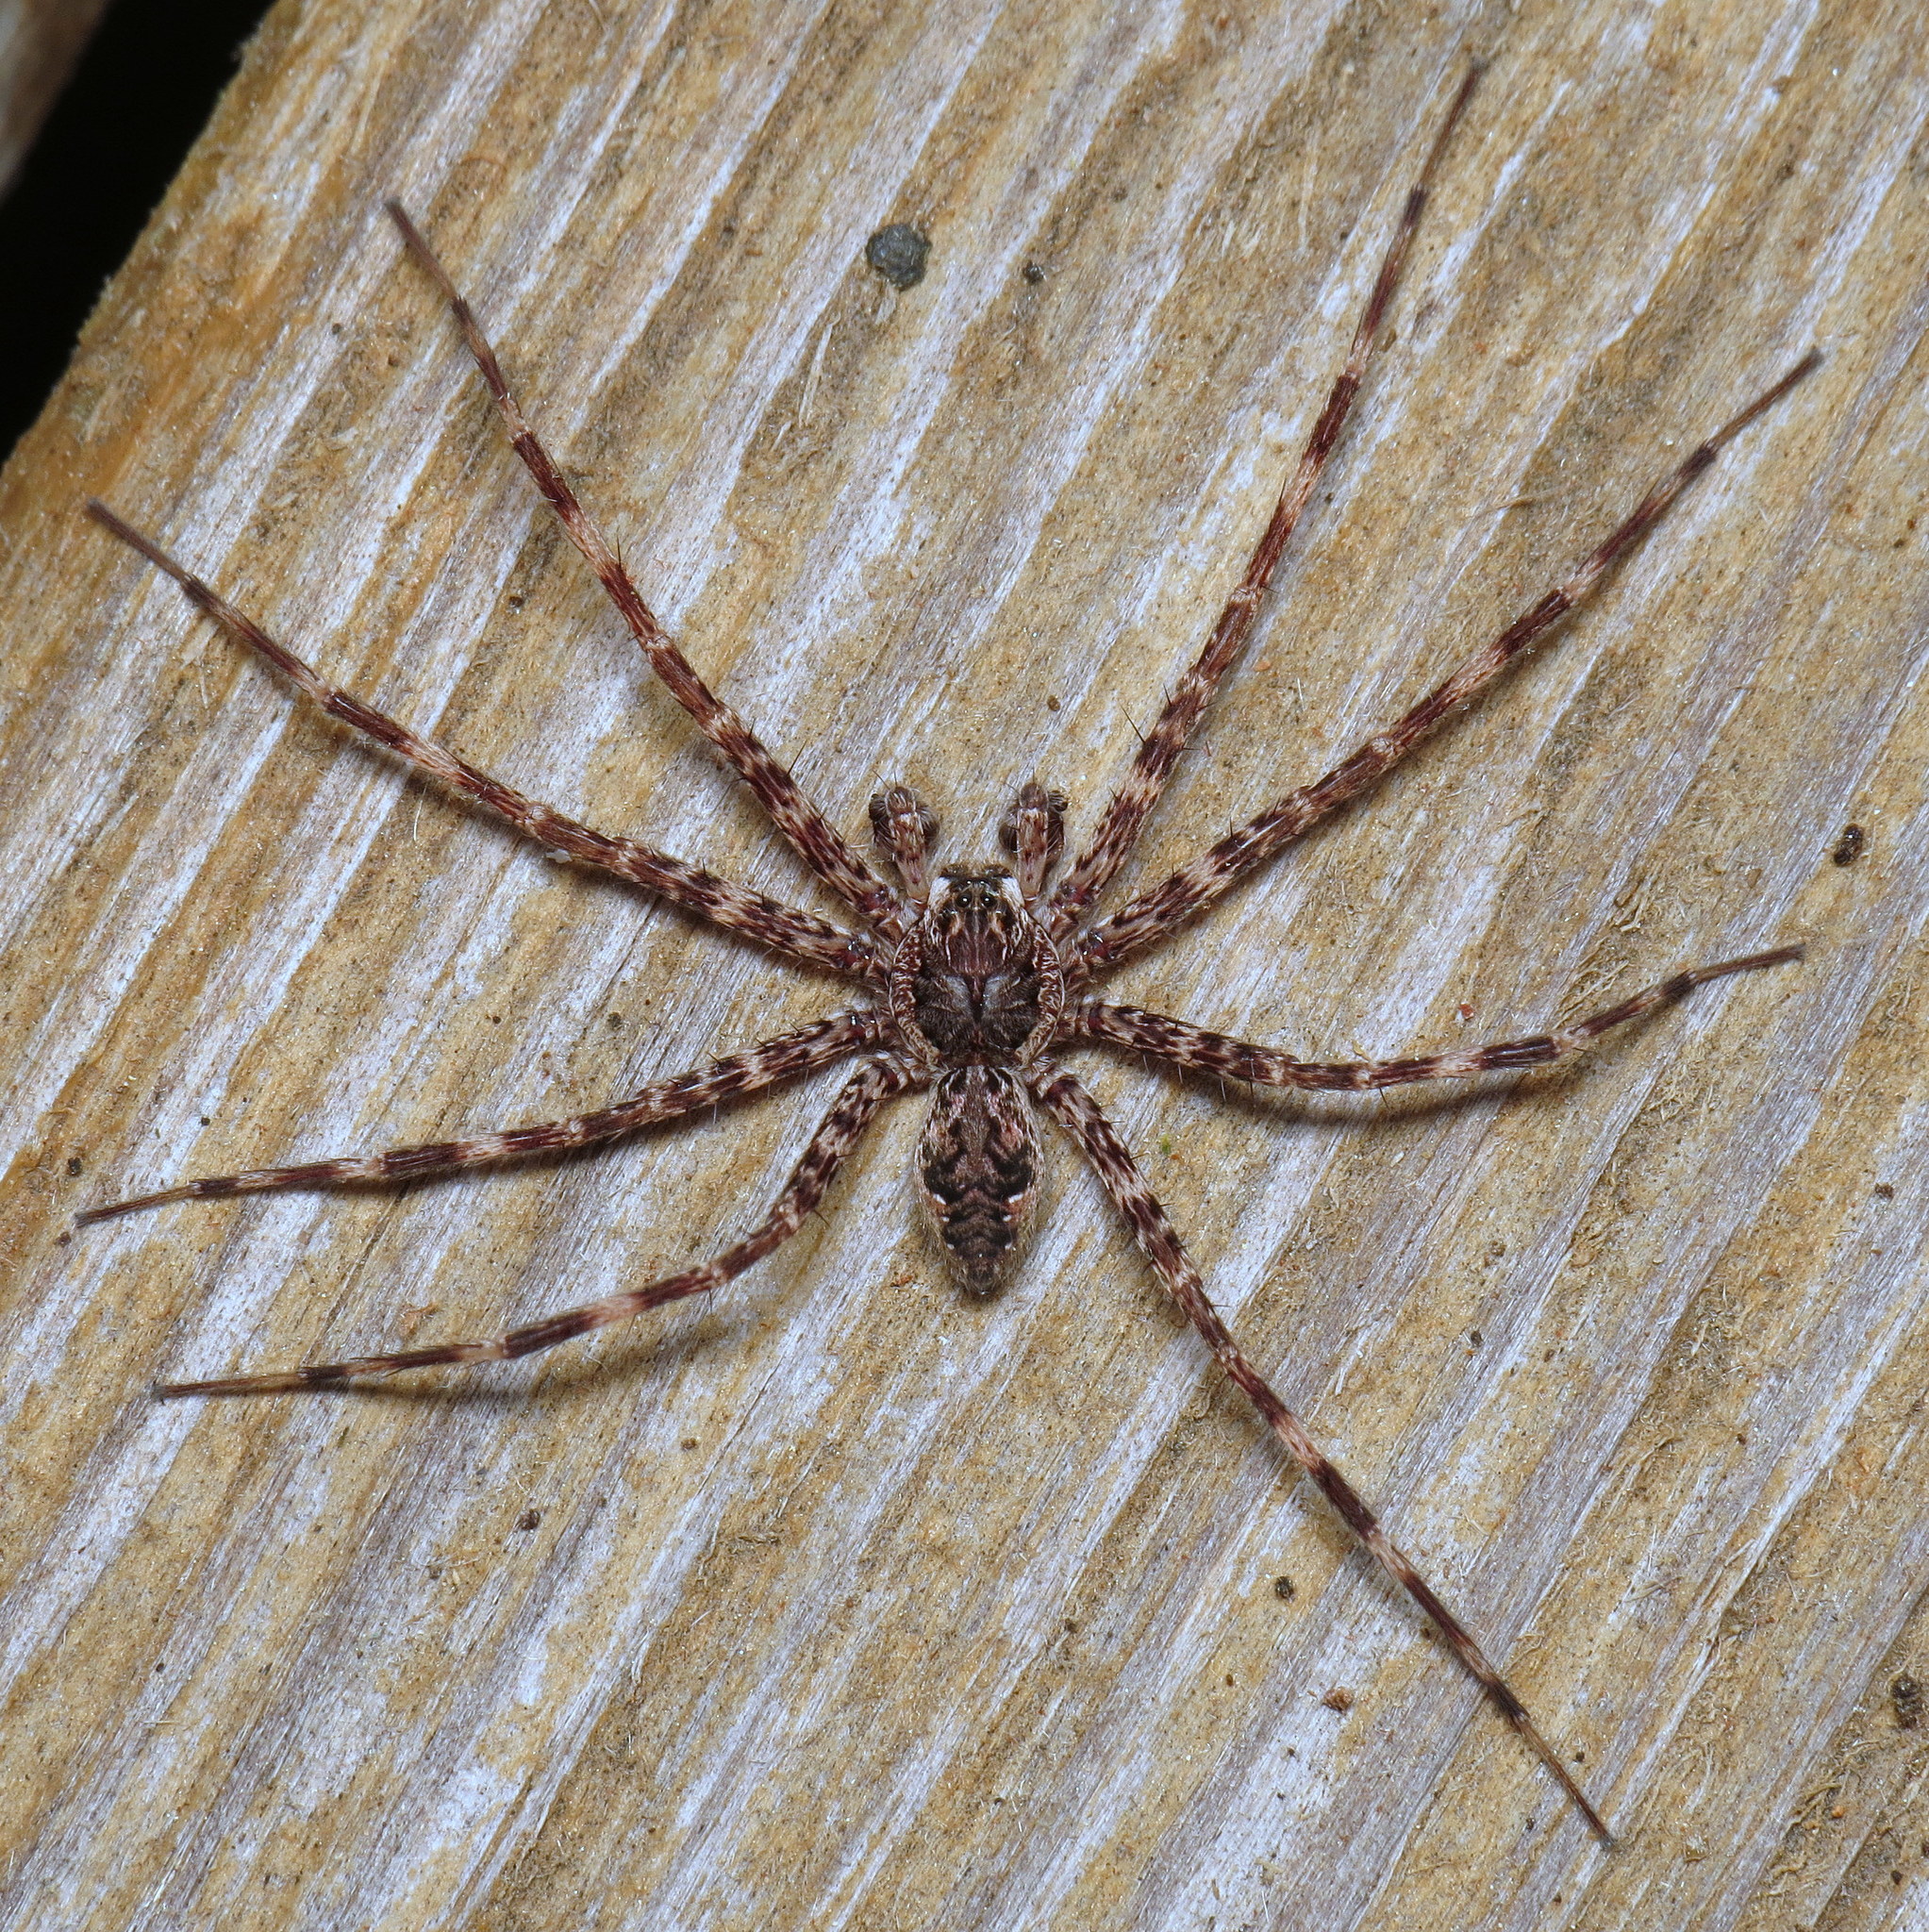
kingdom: Animalia
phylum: Arthropoda
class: Arachnida
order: Araneae
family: Pisauridae
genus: Dolomedes
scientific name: Dolomedes tenebrosus
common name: Dark fishing spider
